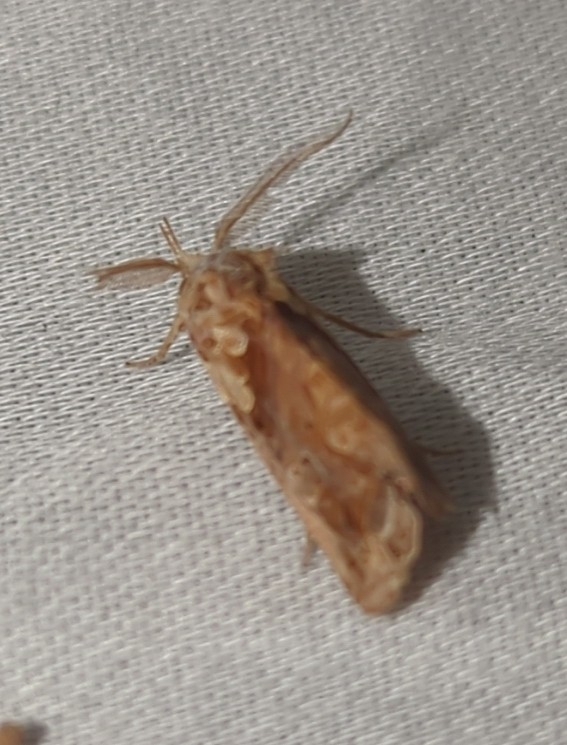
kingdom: Animalia
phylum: Arthropoda
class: Insecta
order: Lepidoptera
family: Erebidae
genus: Plusiodonta
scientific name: Plusiodonta compressipalpis
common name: Moonseed moth
